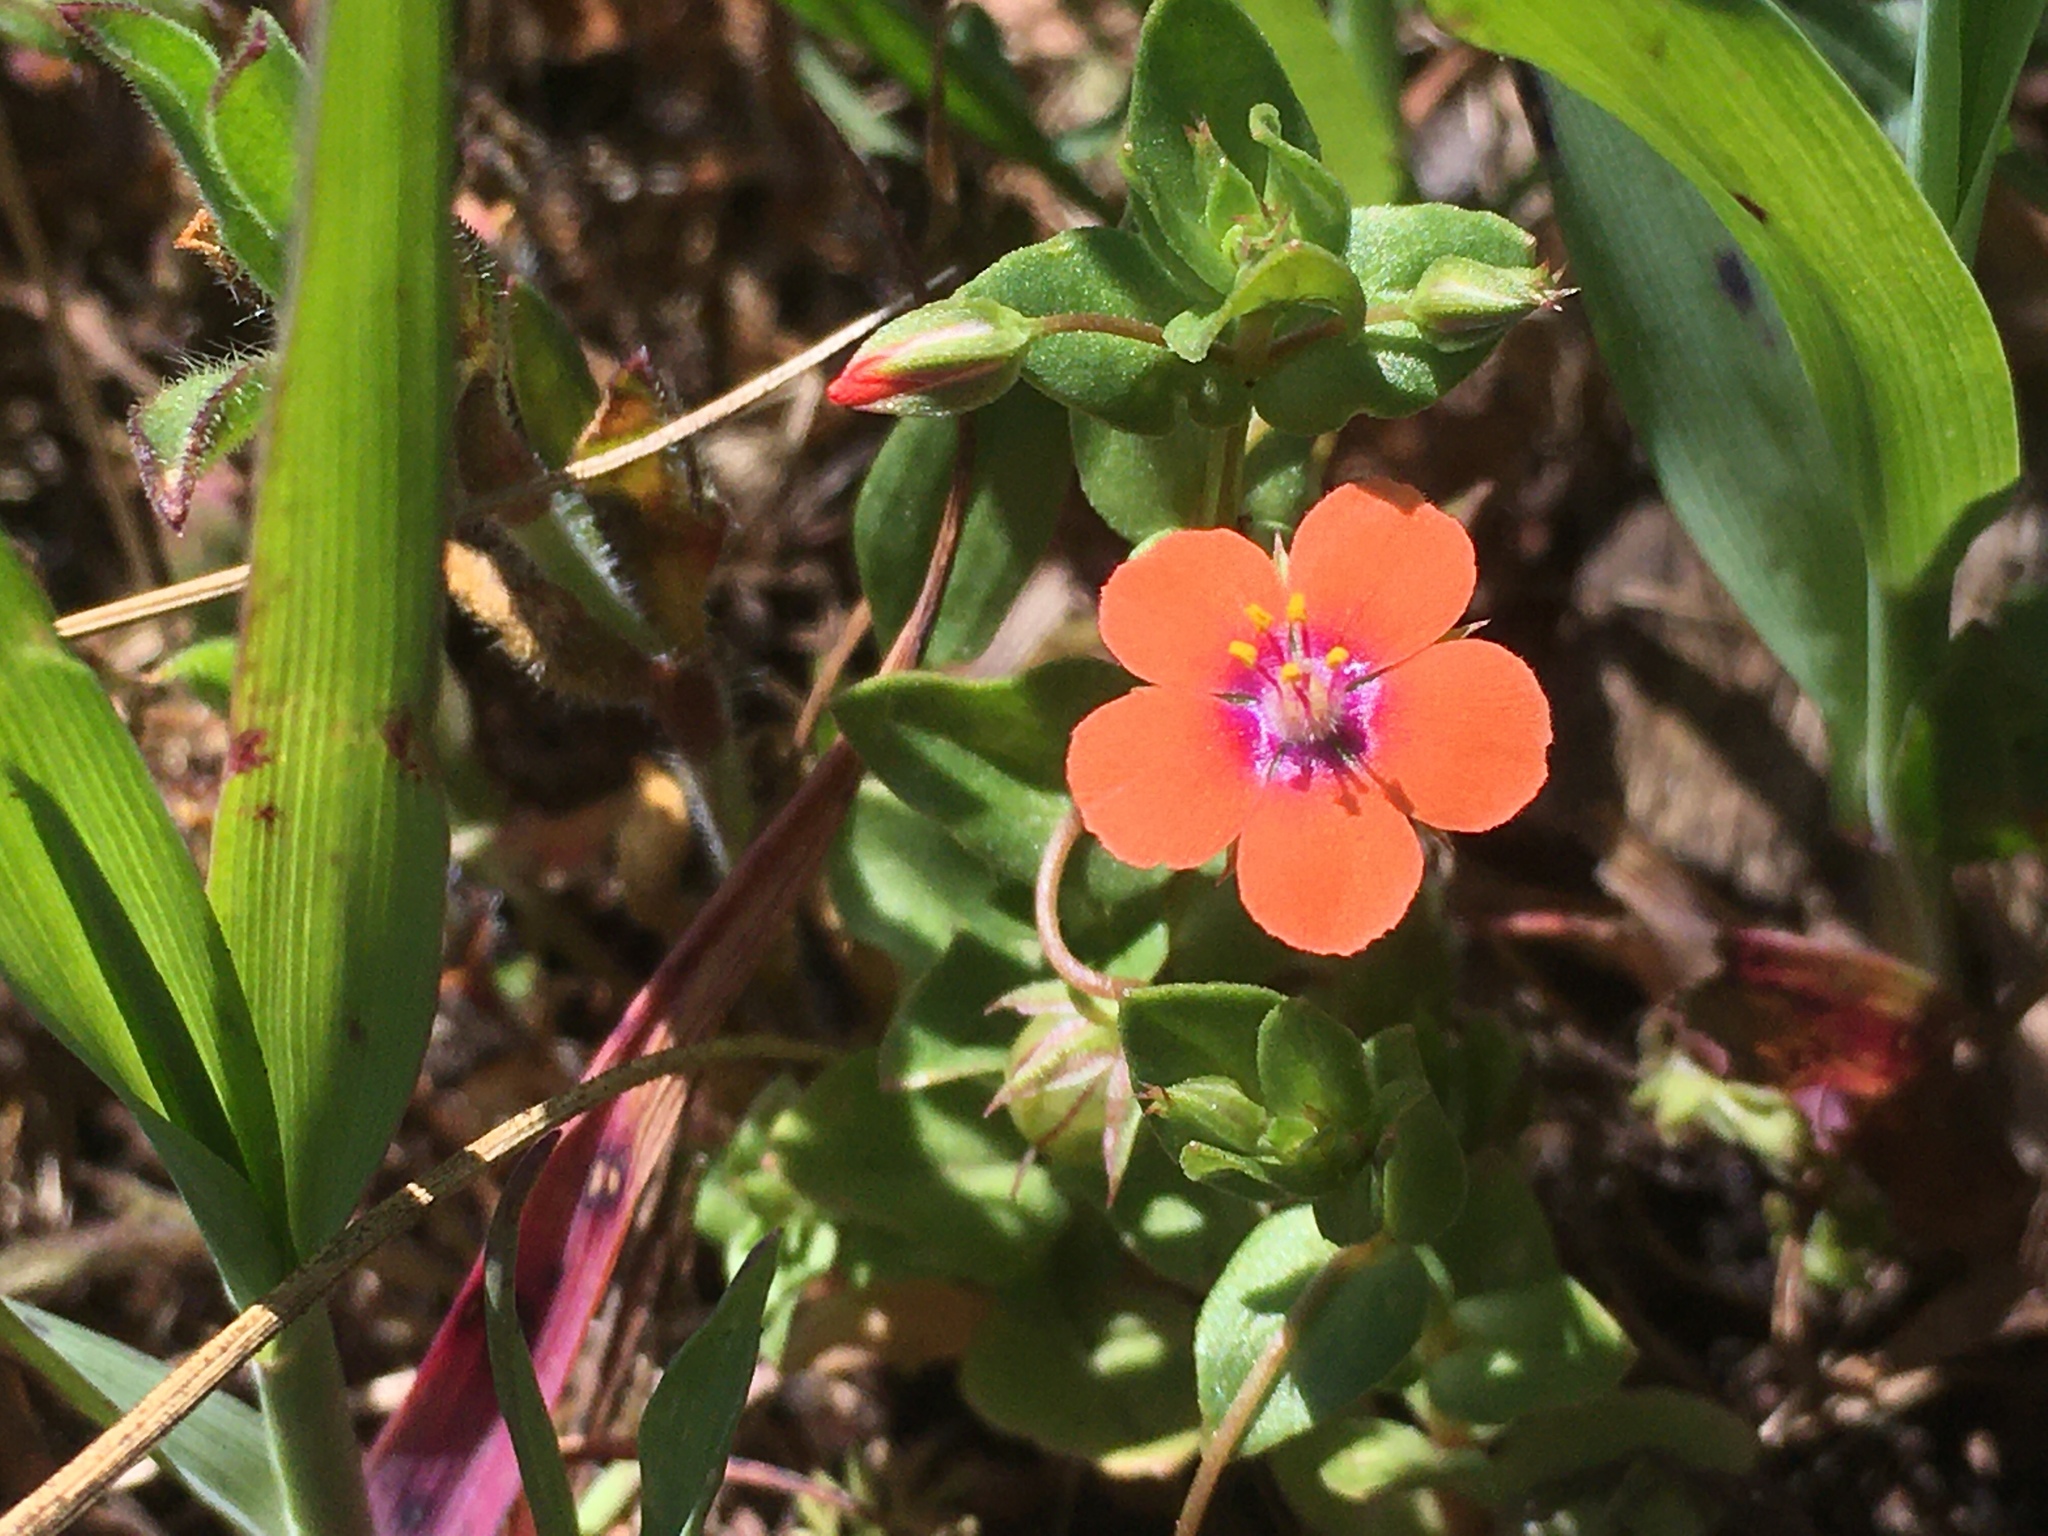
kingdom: Plantae
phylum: Tracheophyta
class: Magnoliopsida
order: Ericales
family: Primulaceae
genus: Lysimachia
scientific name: Lysimachia arvensis
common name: Scarlet pimpernel
